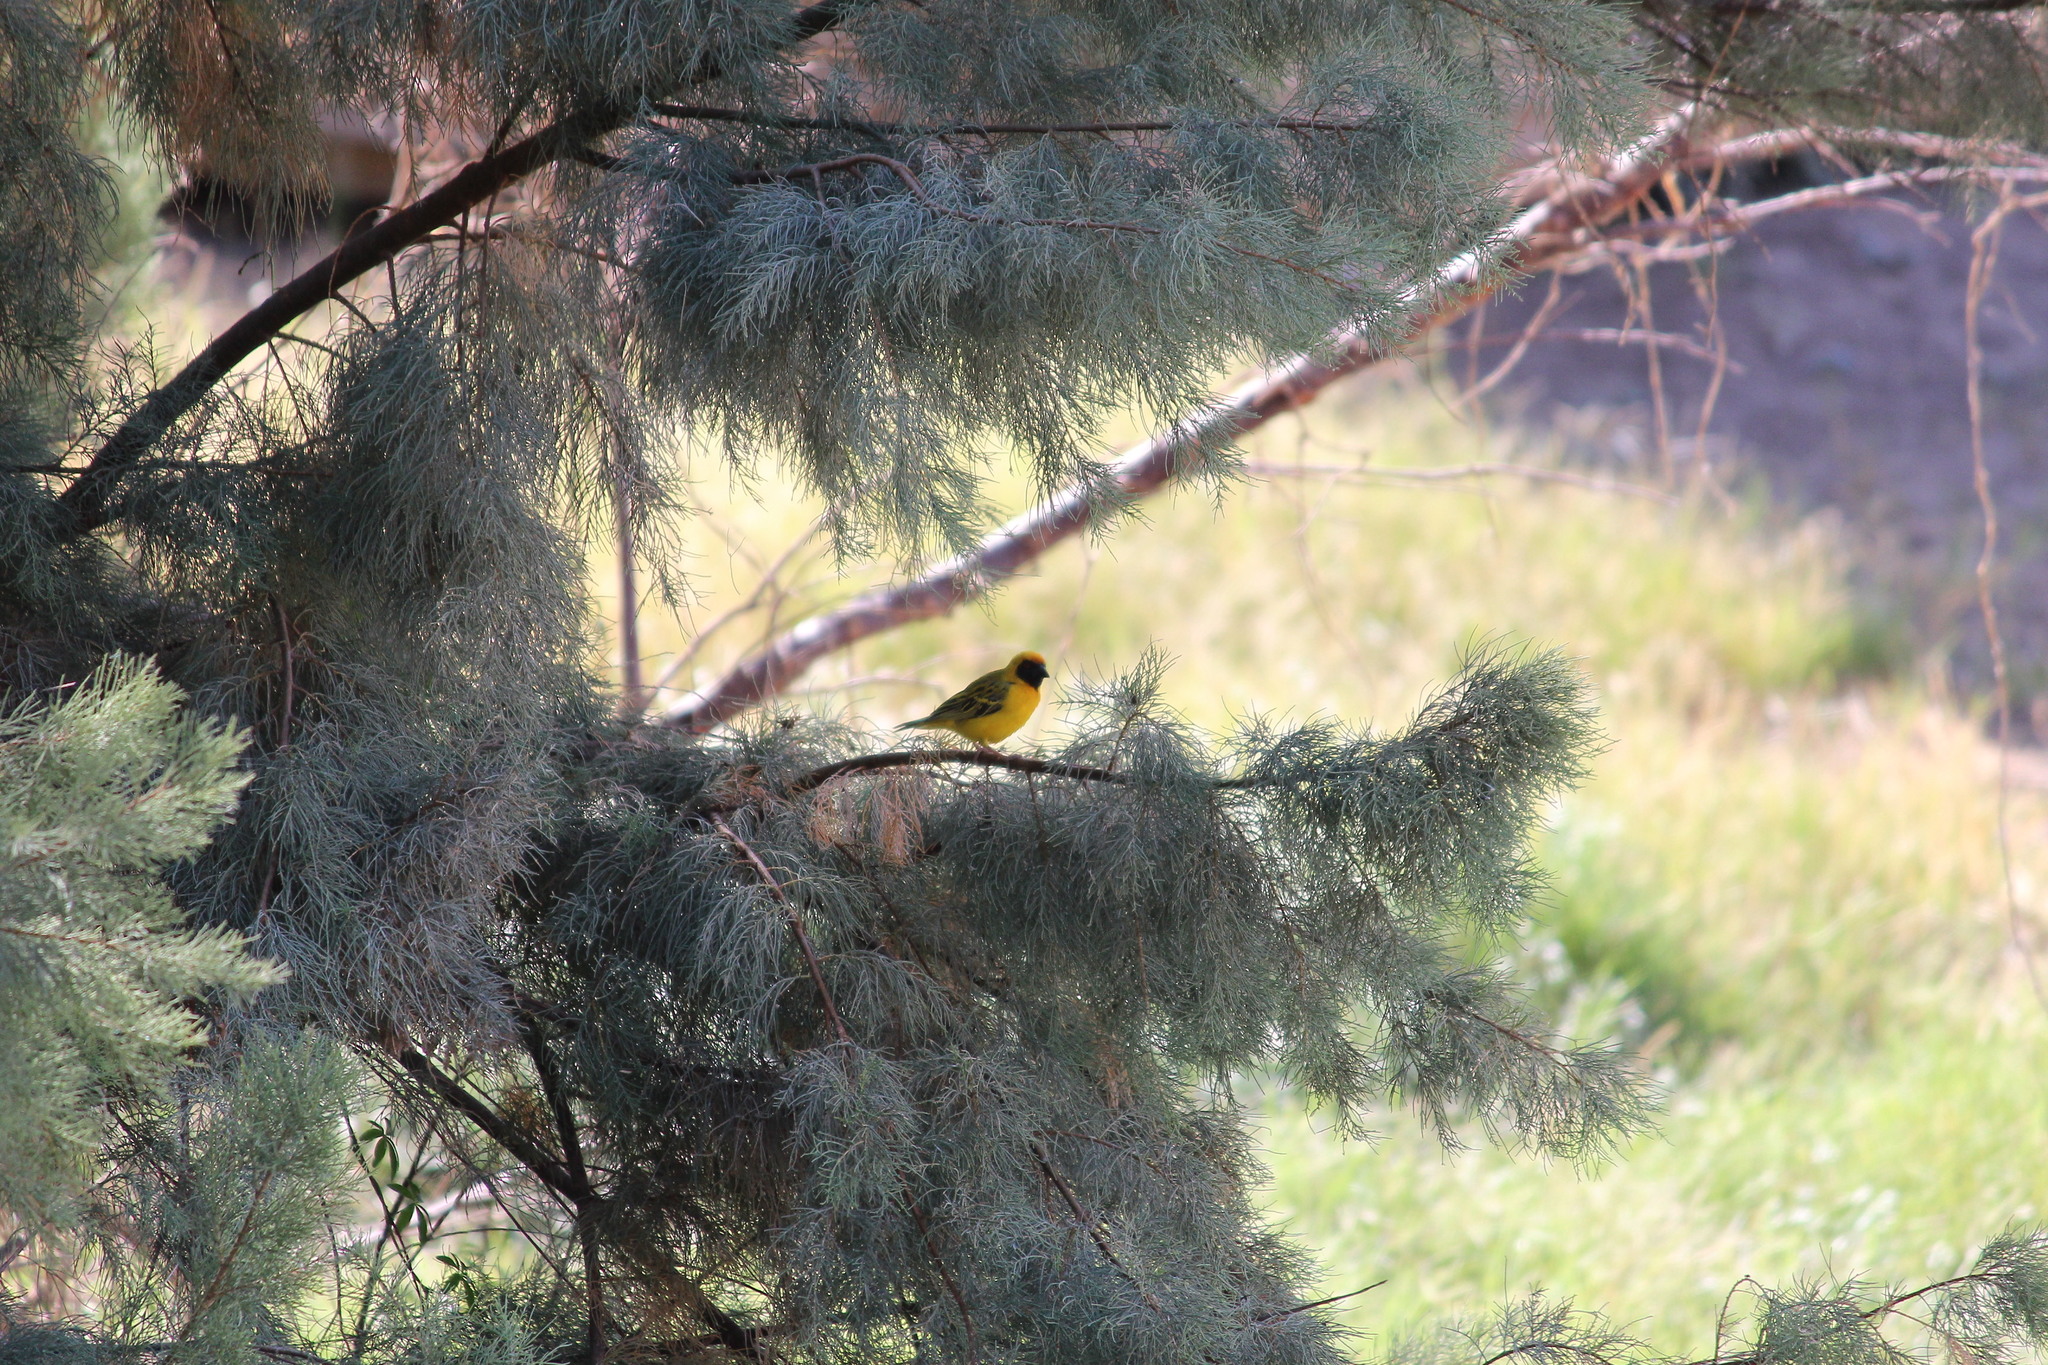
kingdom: Animalia
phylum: Chordata
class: Aves
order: Passeriformes
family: Ploceidae
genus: Ploceus
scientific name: Ploceus velatus
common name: Southern masked weaver
